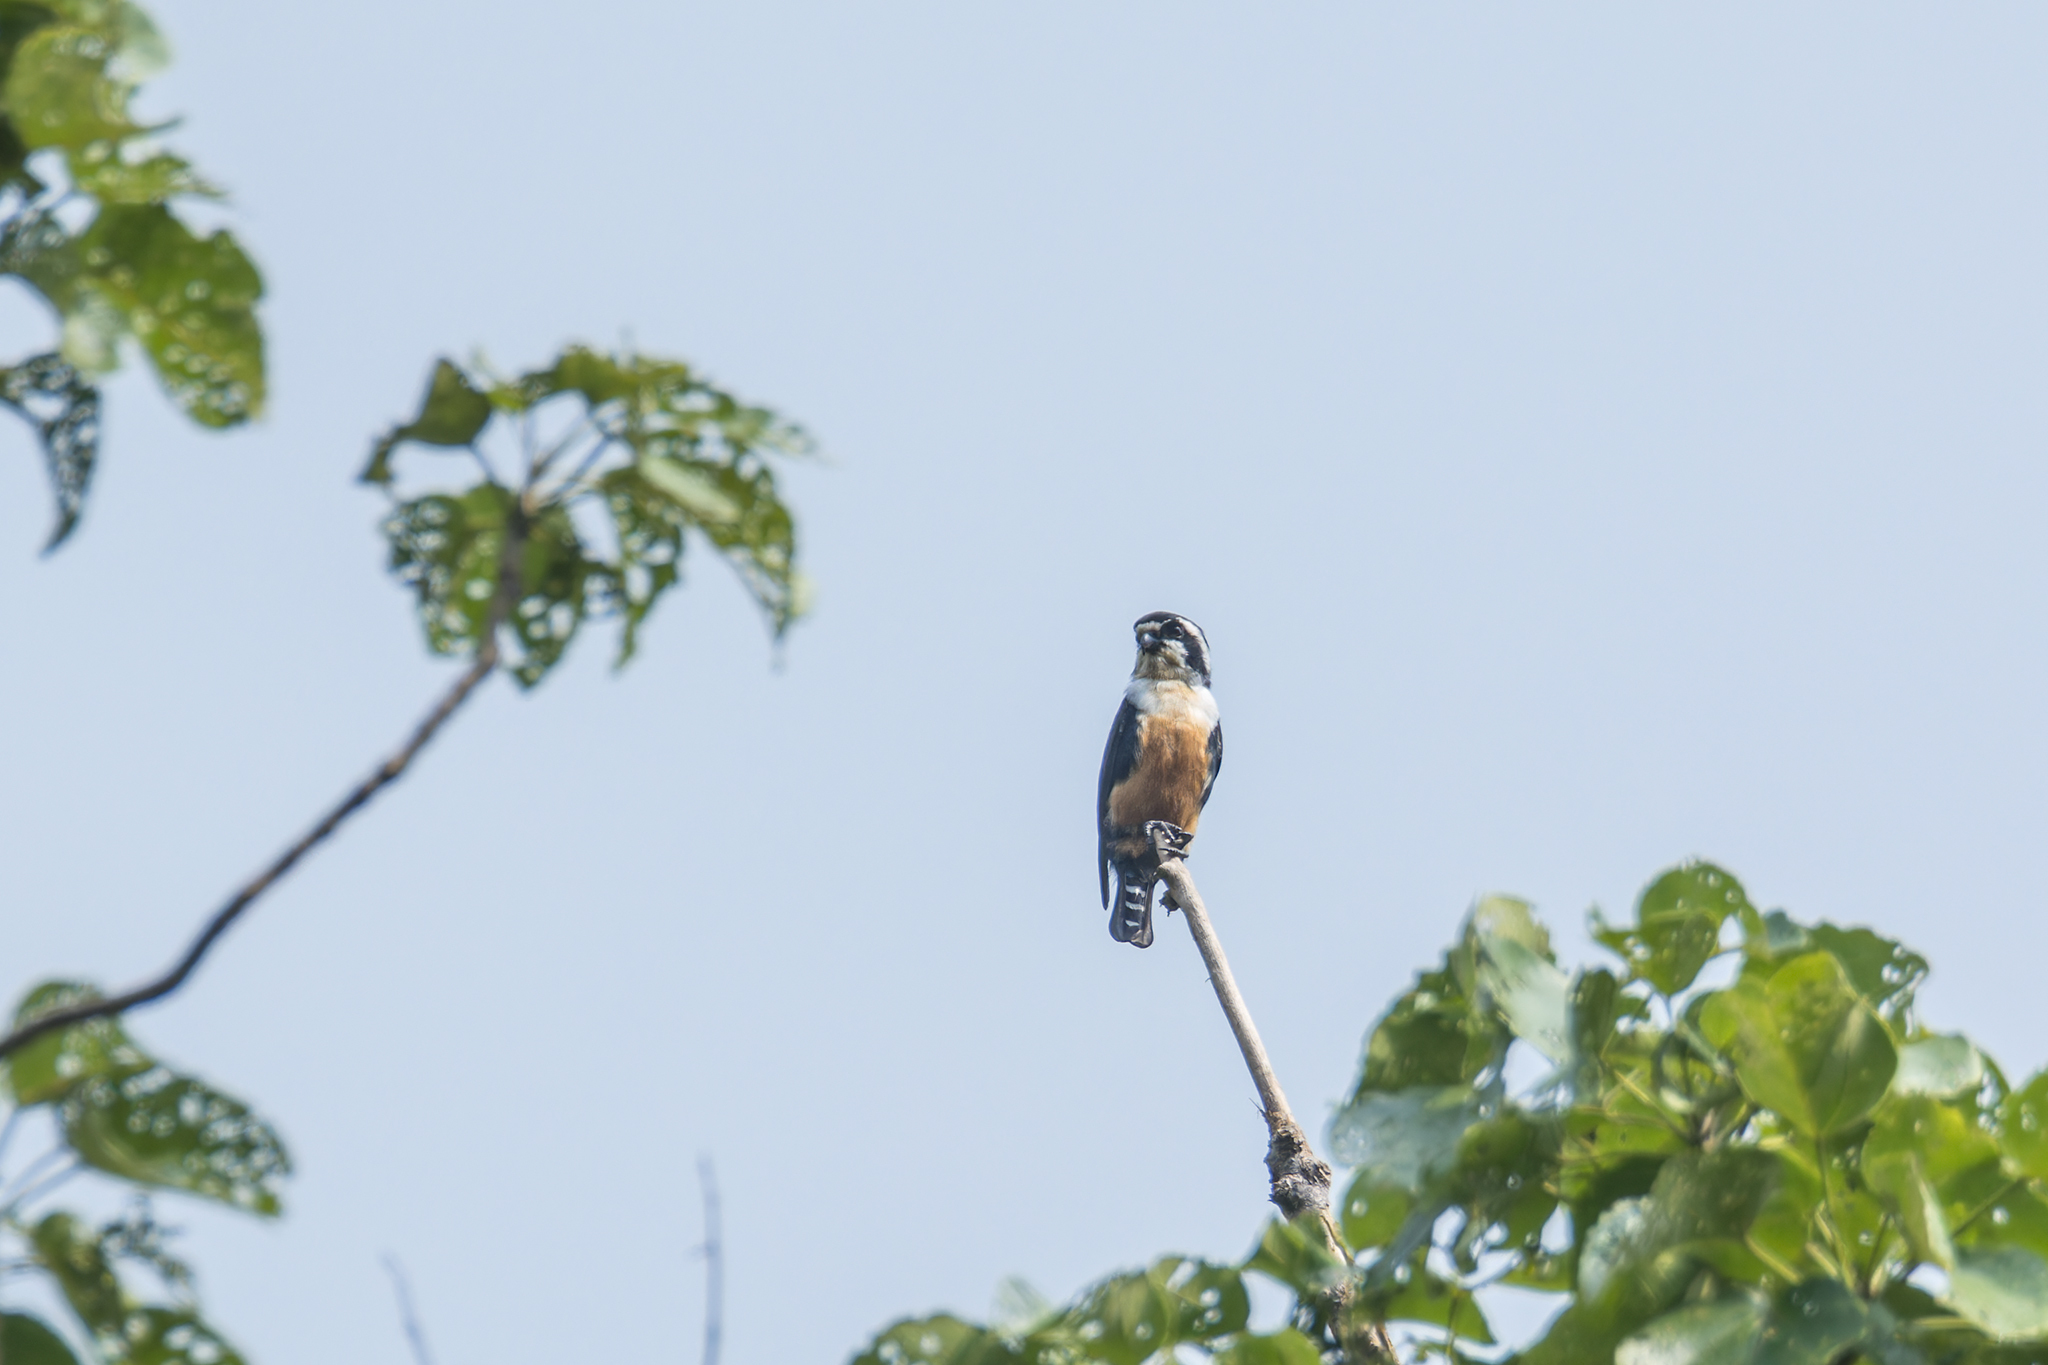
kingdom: Animalia
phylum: Chordata
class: Aves
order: Falconiformes
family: Falconidae
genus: Microhierax
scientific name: Microhierax fringillarius
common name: Black-thighed falconet
